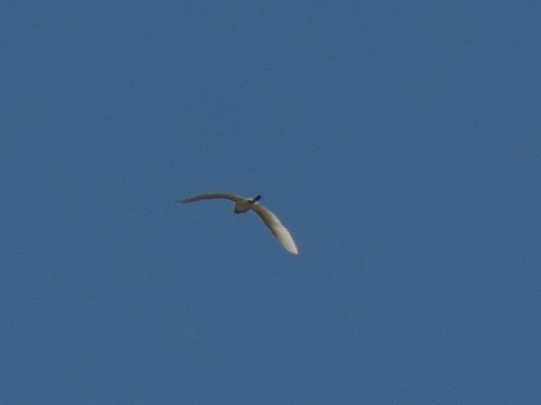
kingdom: Animalia
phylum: Chordata
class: Aves
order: Pelecaniformes
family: Ardeidae
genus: Ardea
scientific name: Ardea alba
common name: Great egret
